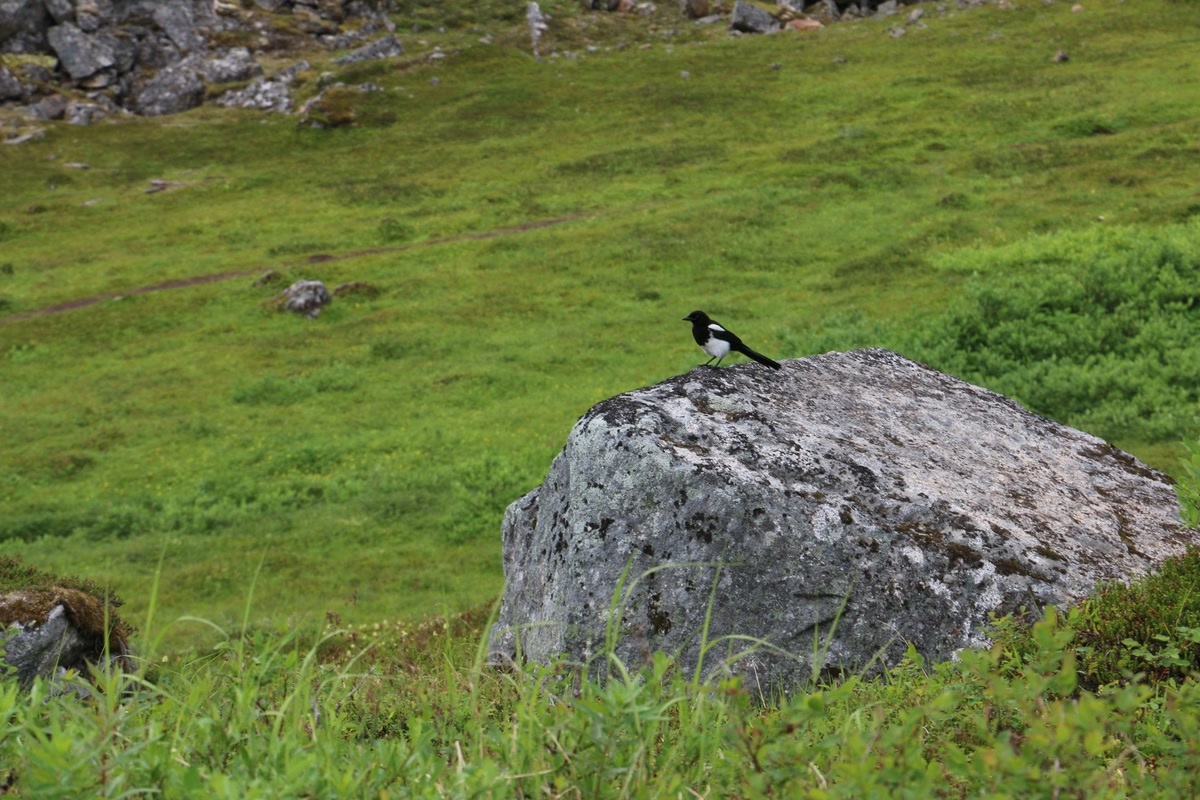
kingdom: Animalia
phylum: Chordata
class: Aves
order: Passeriformes
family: Corvidae
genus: Pica
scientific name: Pica hudsonia
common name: Black-billed magpie
